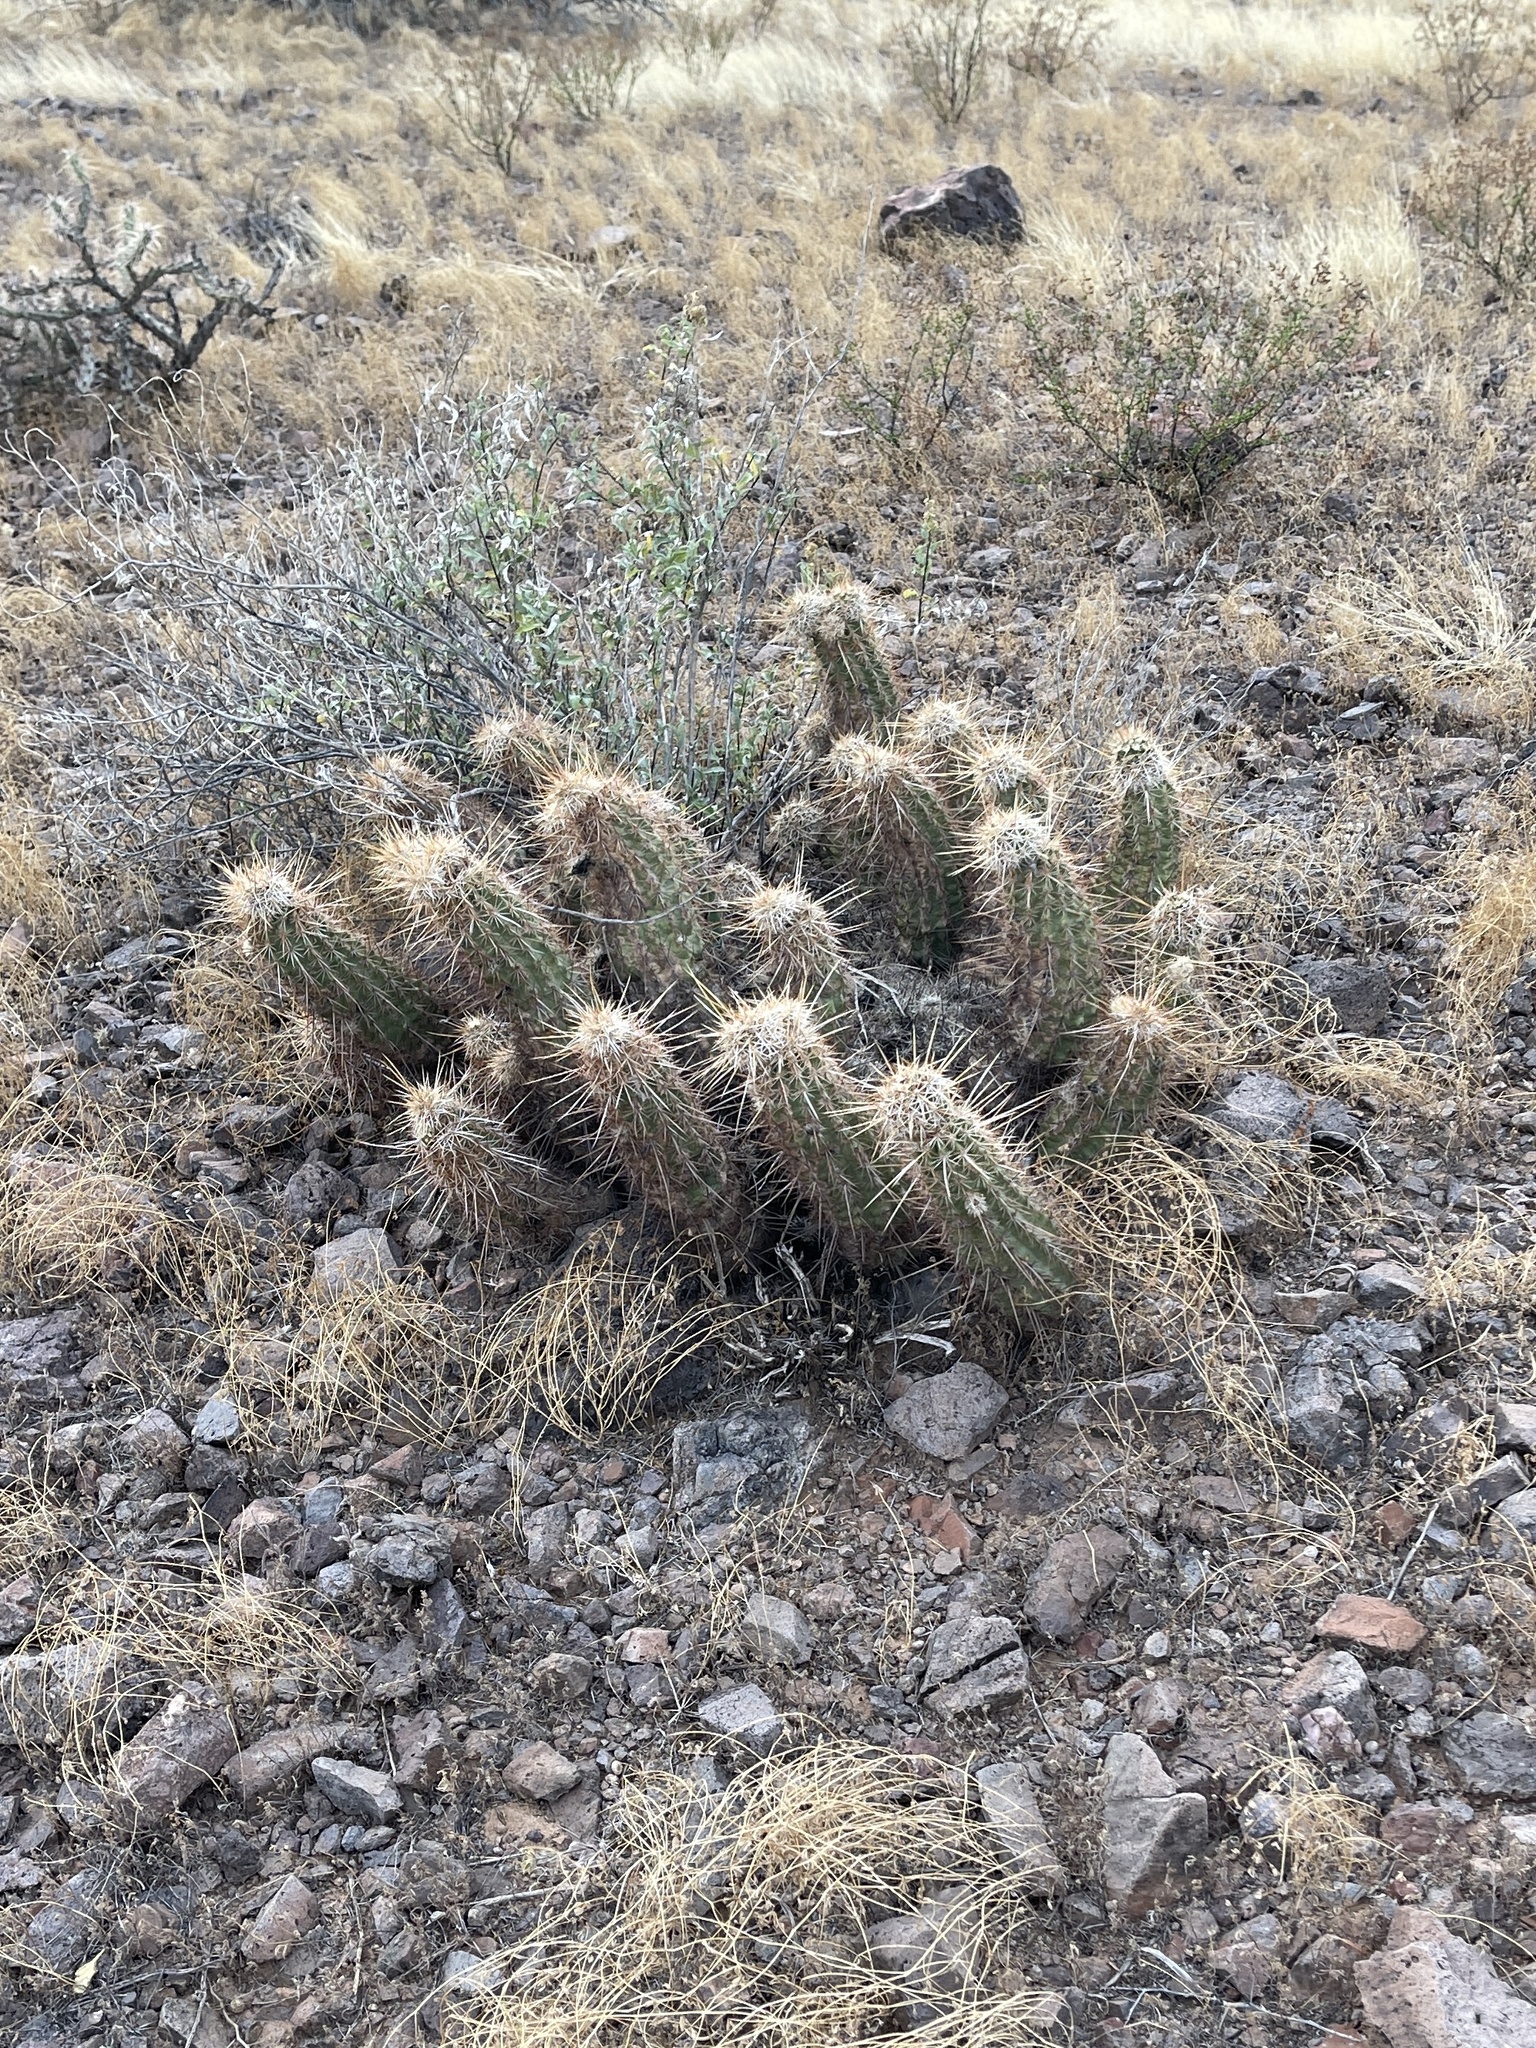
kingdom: Plantae
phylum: Tracheophyta
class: Magnoliopsida
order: Caryophyllales
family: Cactaceae
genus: Echinocereus
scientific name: Echinocereus engelmannii
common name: Engelmann's hedgehog cactus
